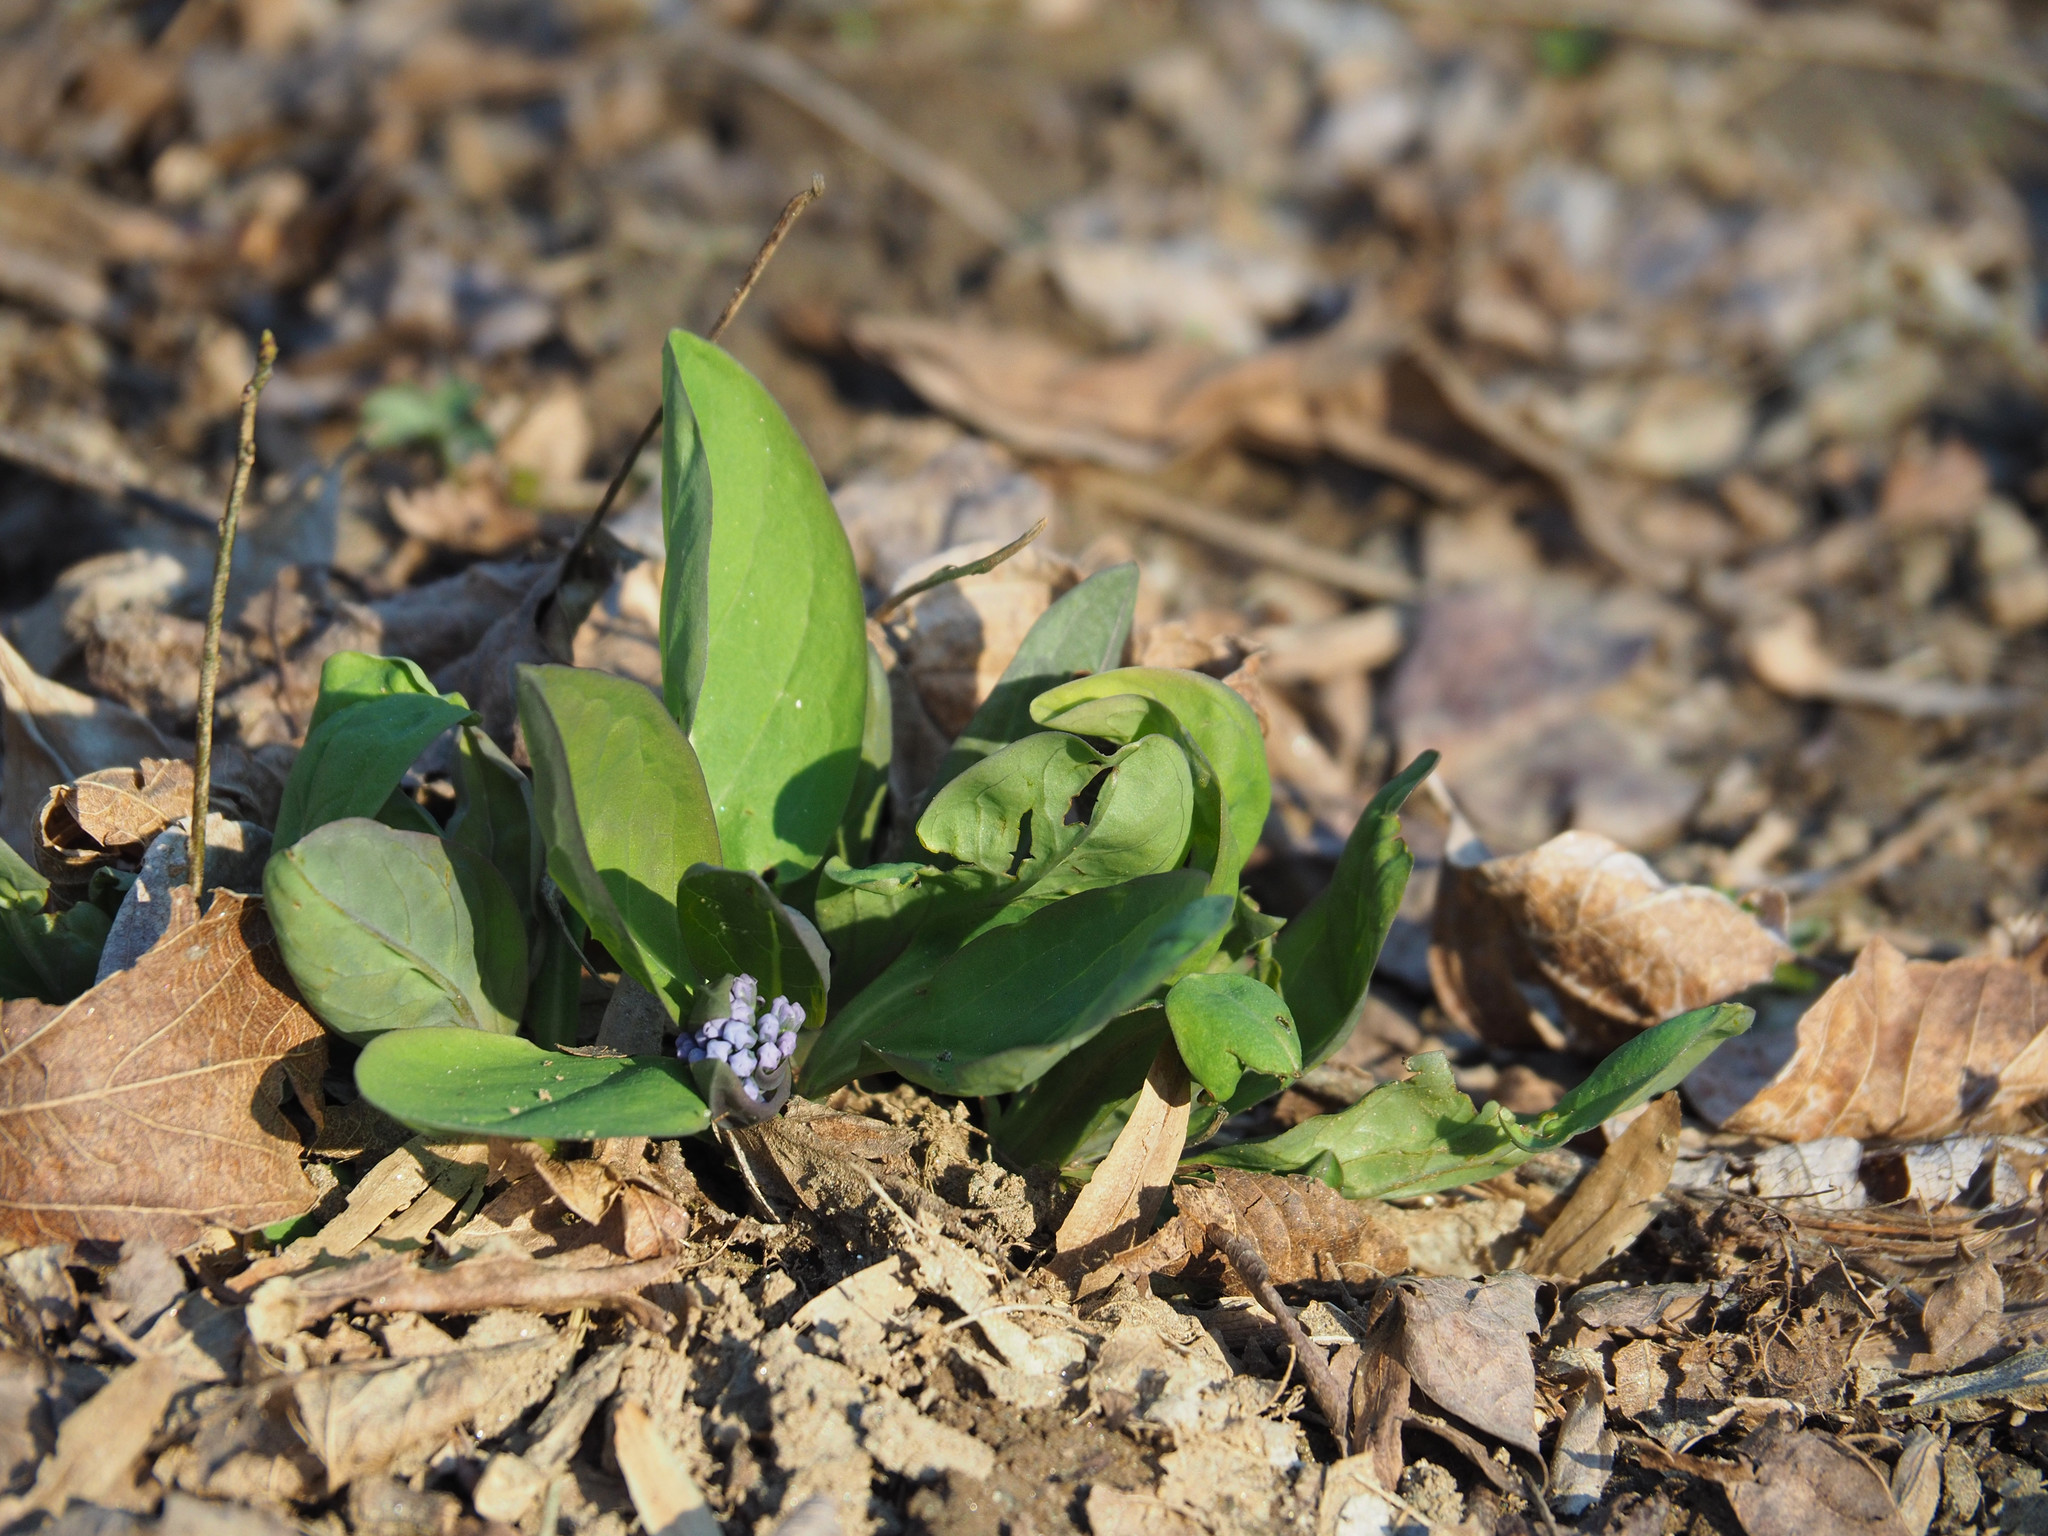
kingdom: Plantae
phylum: Tracheophyta
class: Magnoliopsida
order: Boraginales
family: Boraginaceae
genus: Mertensia
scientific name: Mertensia virginica
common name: Virginia bluebells
